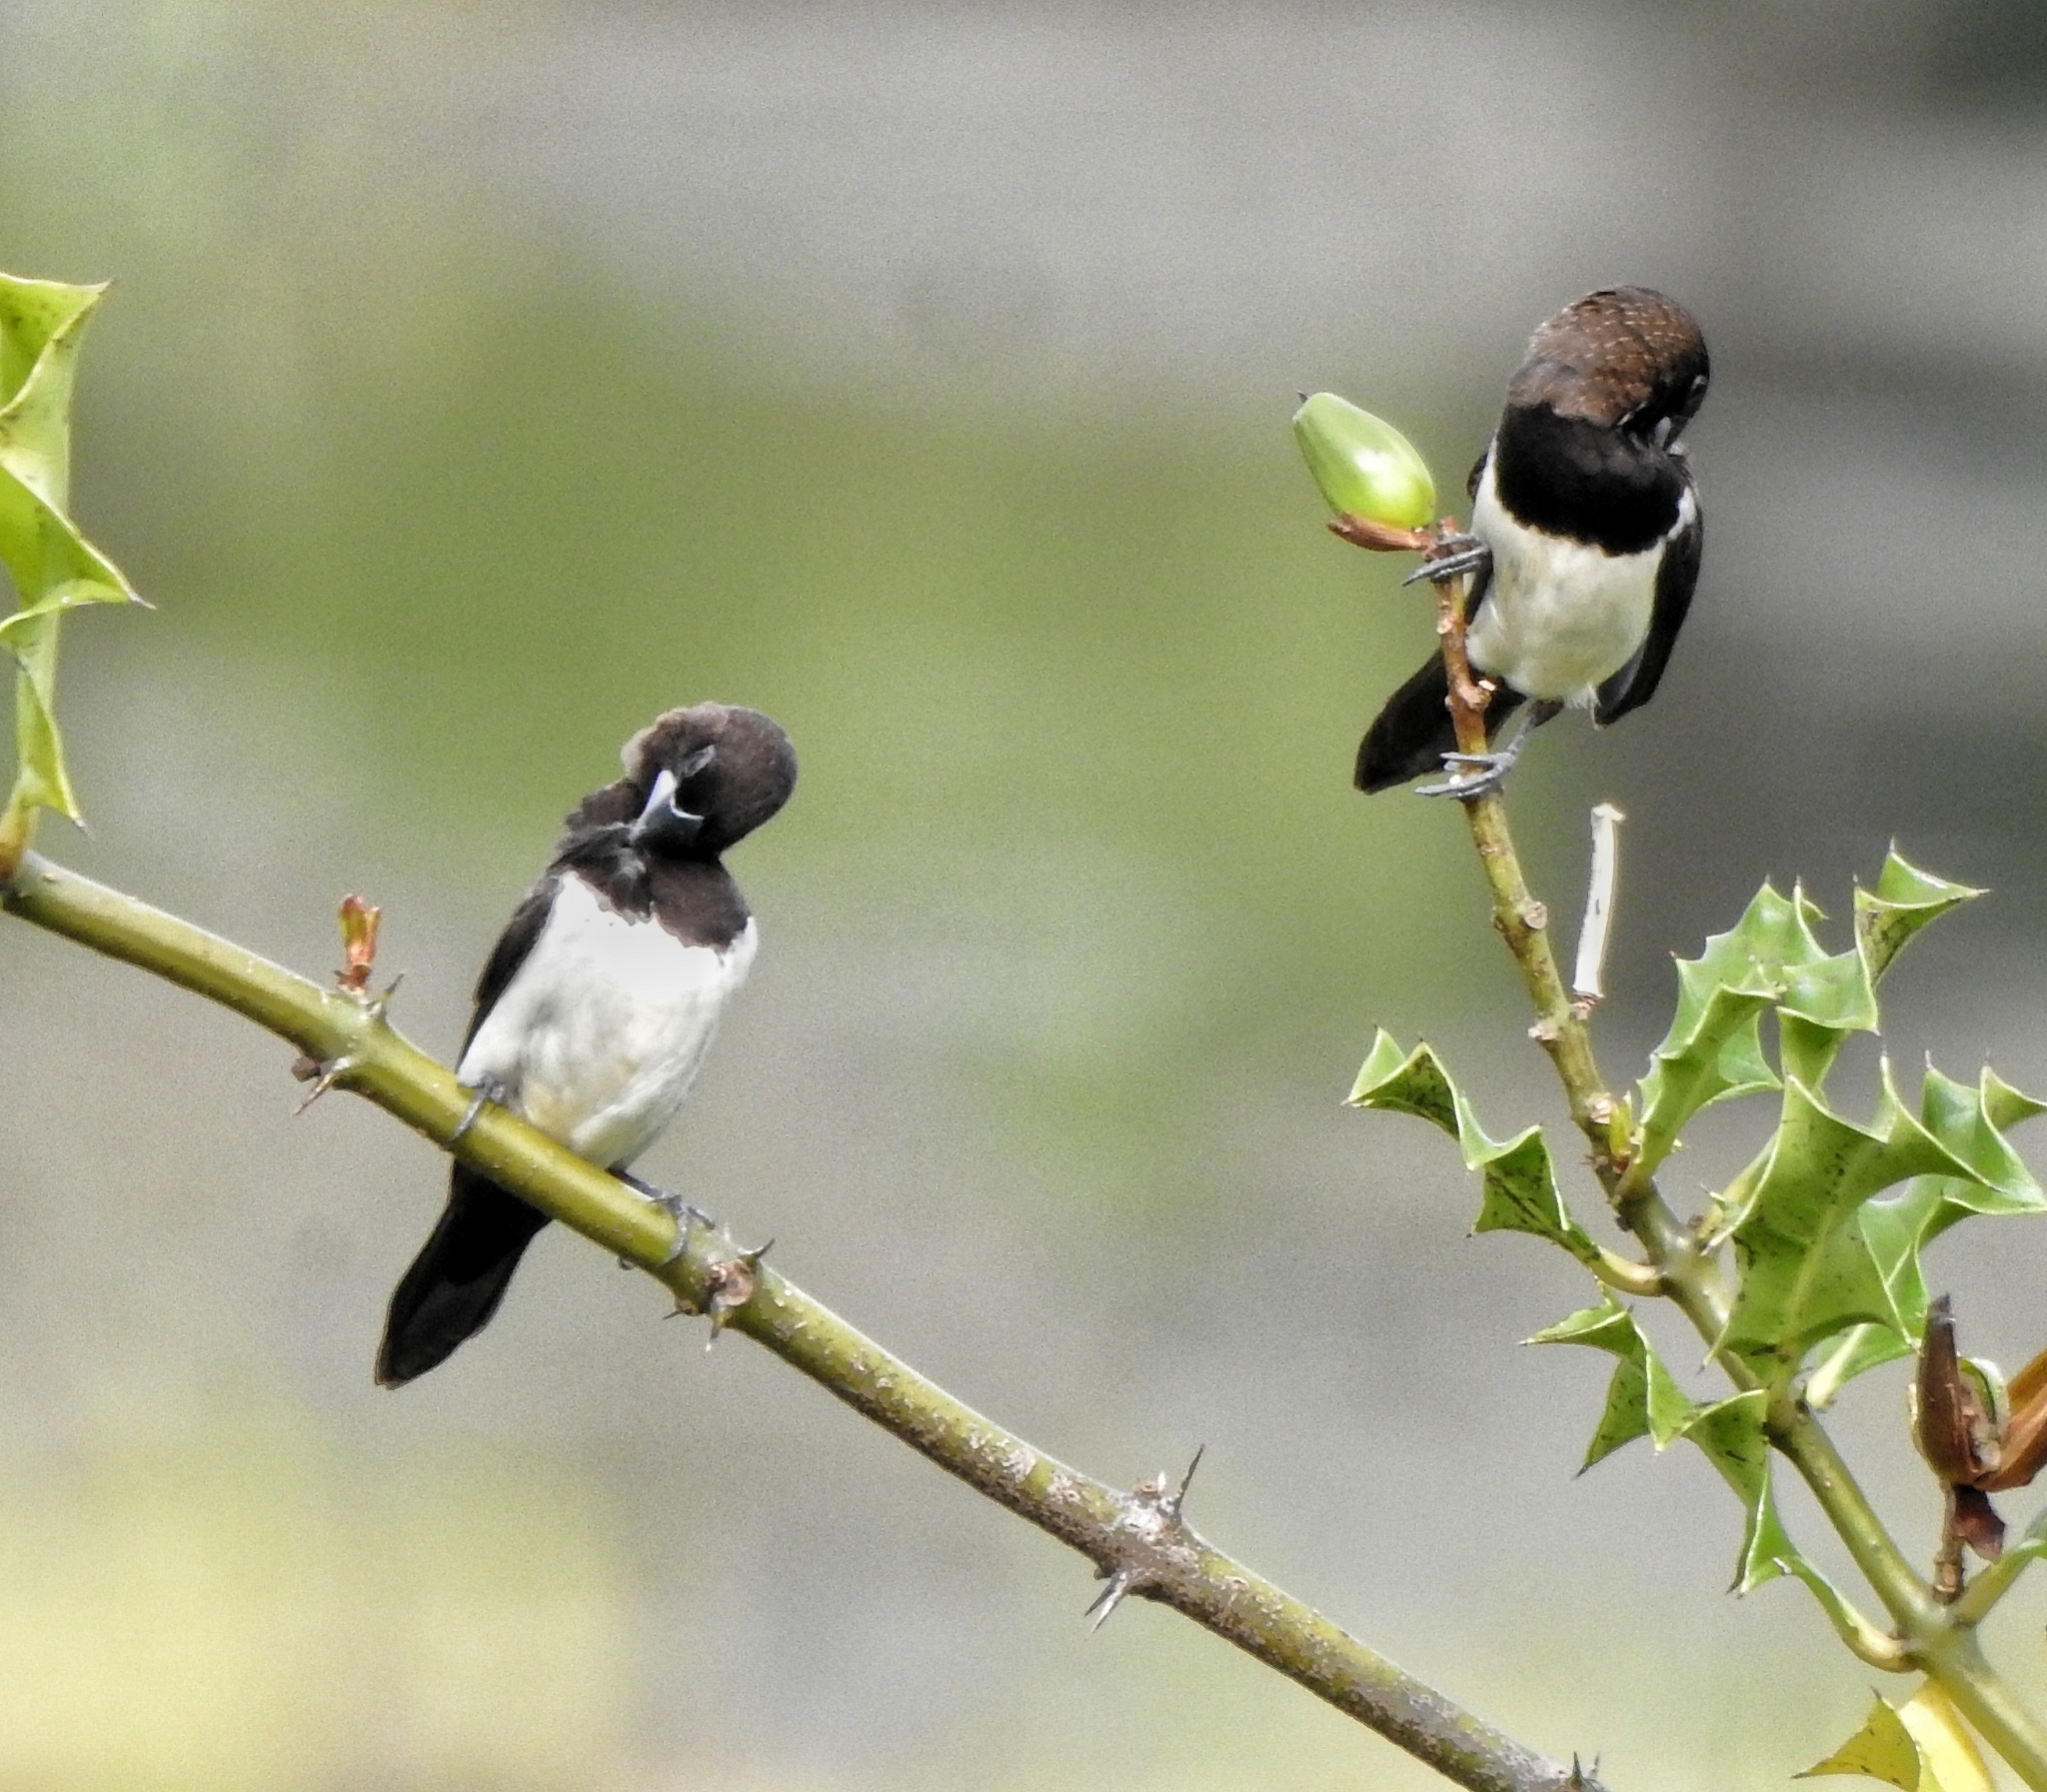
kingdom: Animalia
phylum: Chordata
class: Aves
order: Passeriformes
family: Estrildidae
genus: Lonchura
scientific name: Lonchura striata
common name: White-rumped munia
